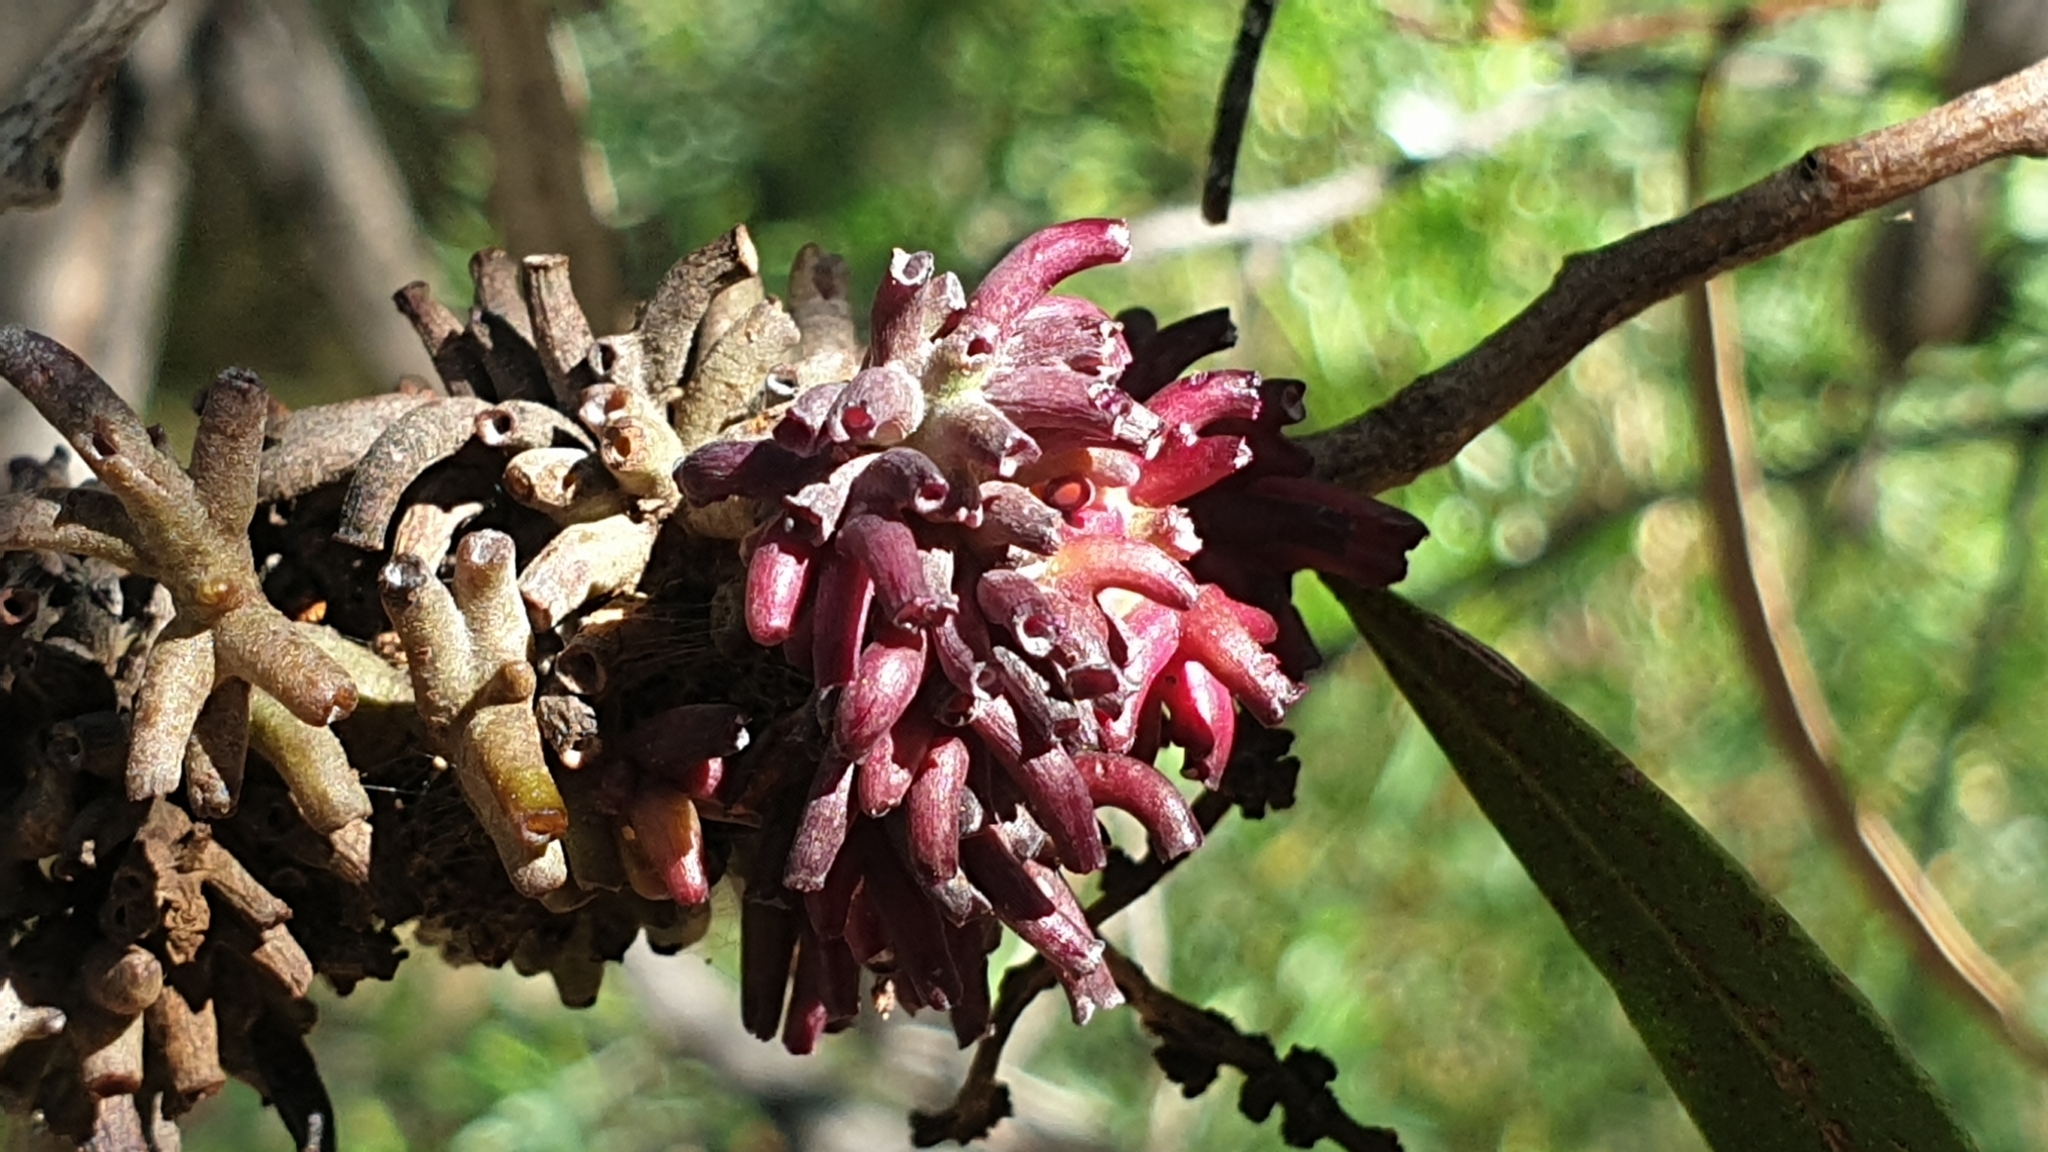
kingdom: Animalia
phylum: Arthropoda
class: Insecta
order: Hemiptera
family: Eriococcidae
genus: Apiomorpha
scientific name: Apiomorpha munita
